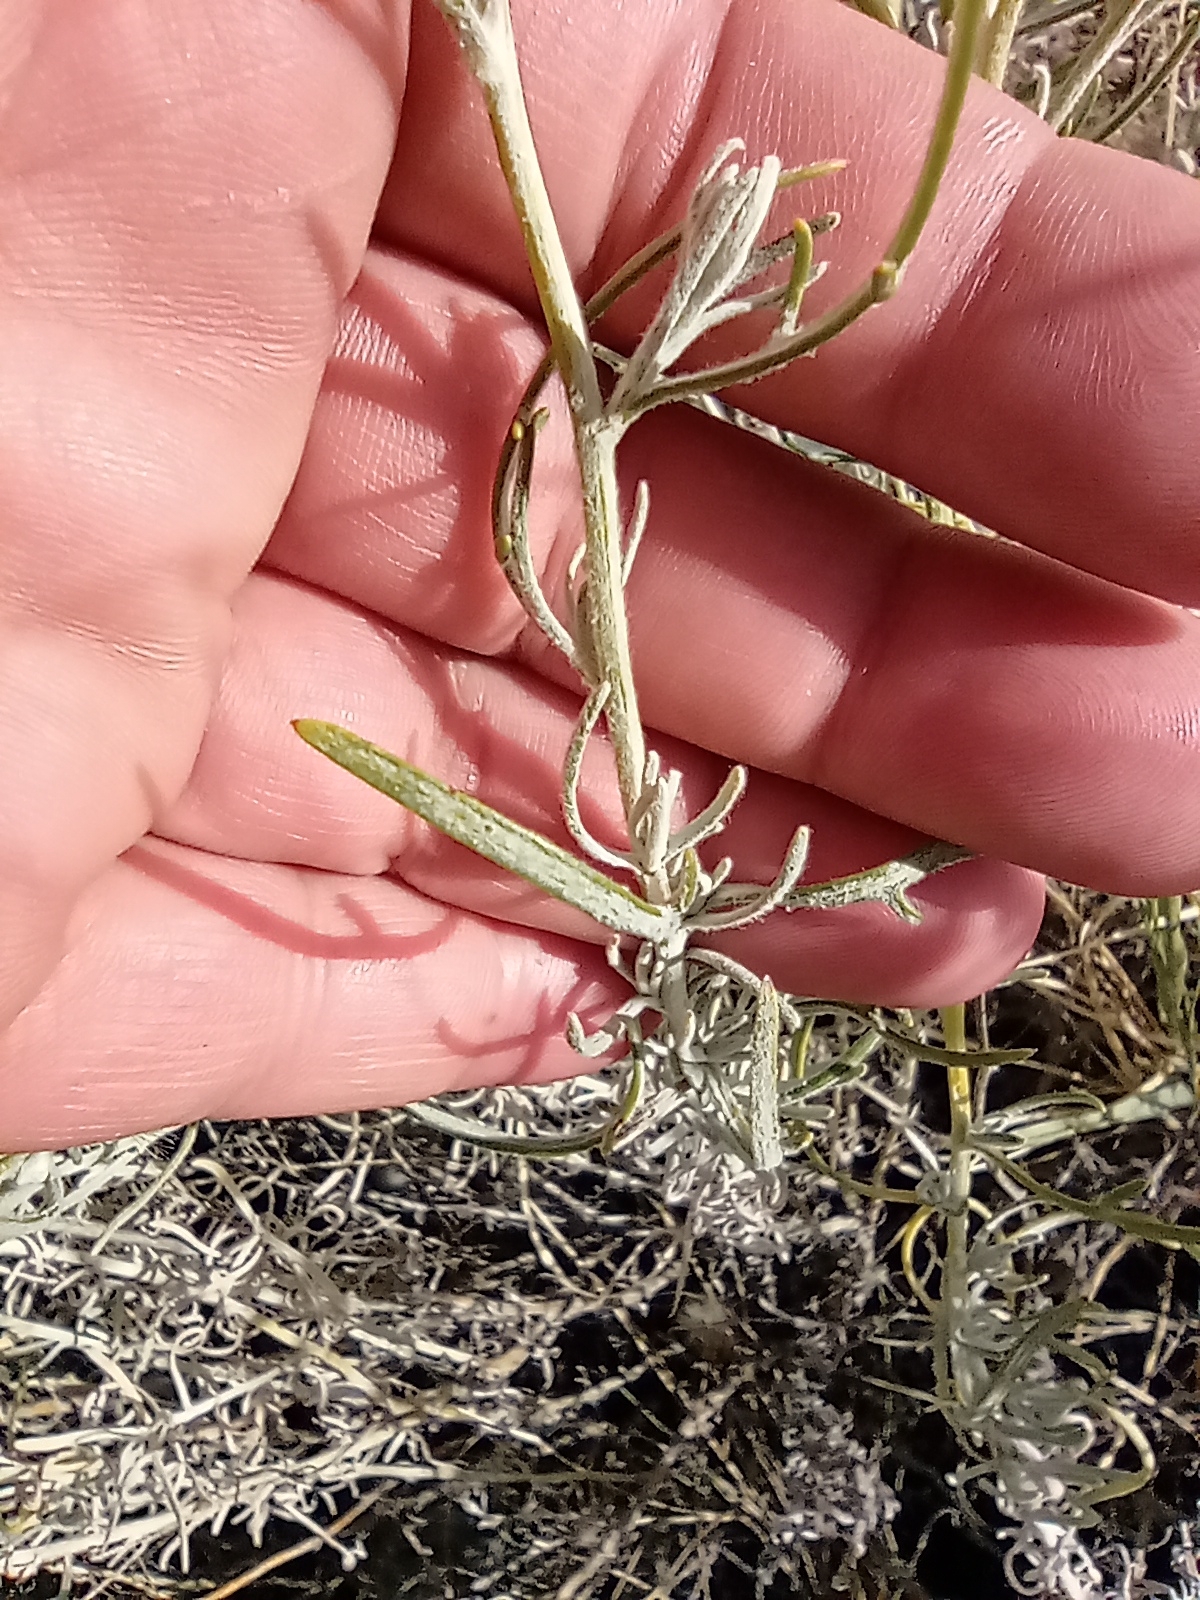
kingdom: Plantae
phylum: Tracheophyta
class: Magnoliopsida
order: Asterales
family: Asteraceae
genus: Senecio
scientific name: Senecio leucostachys
